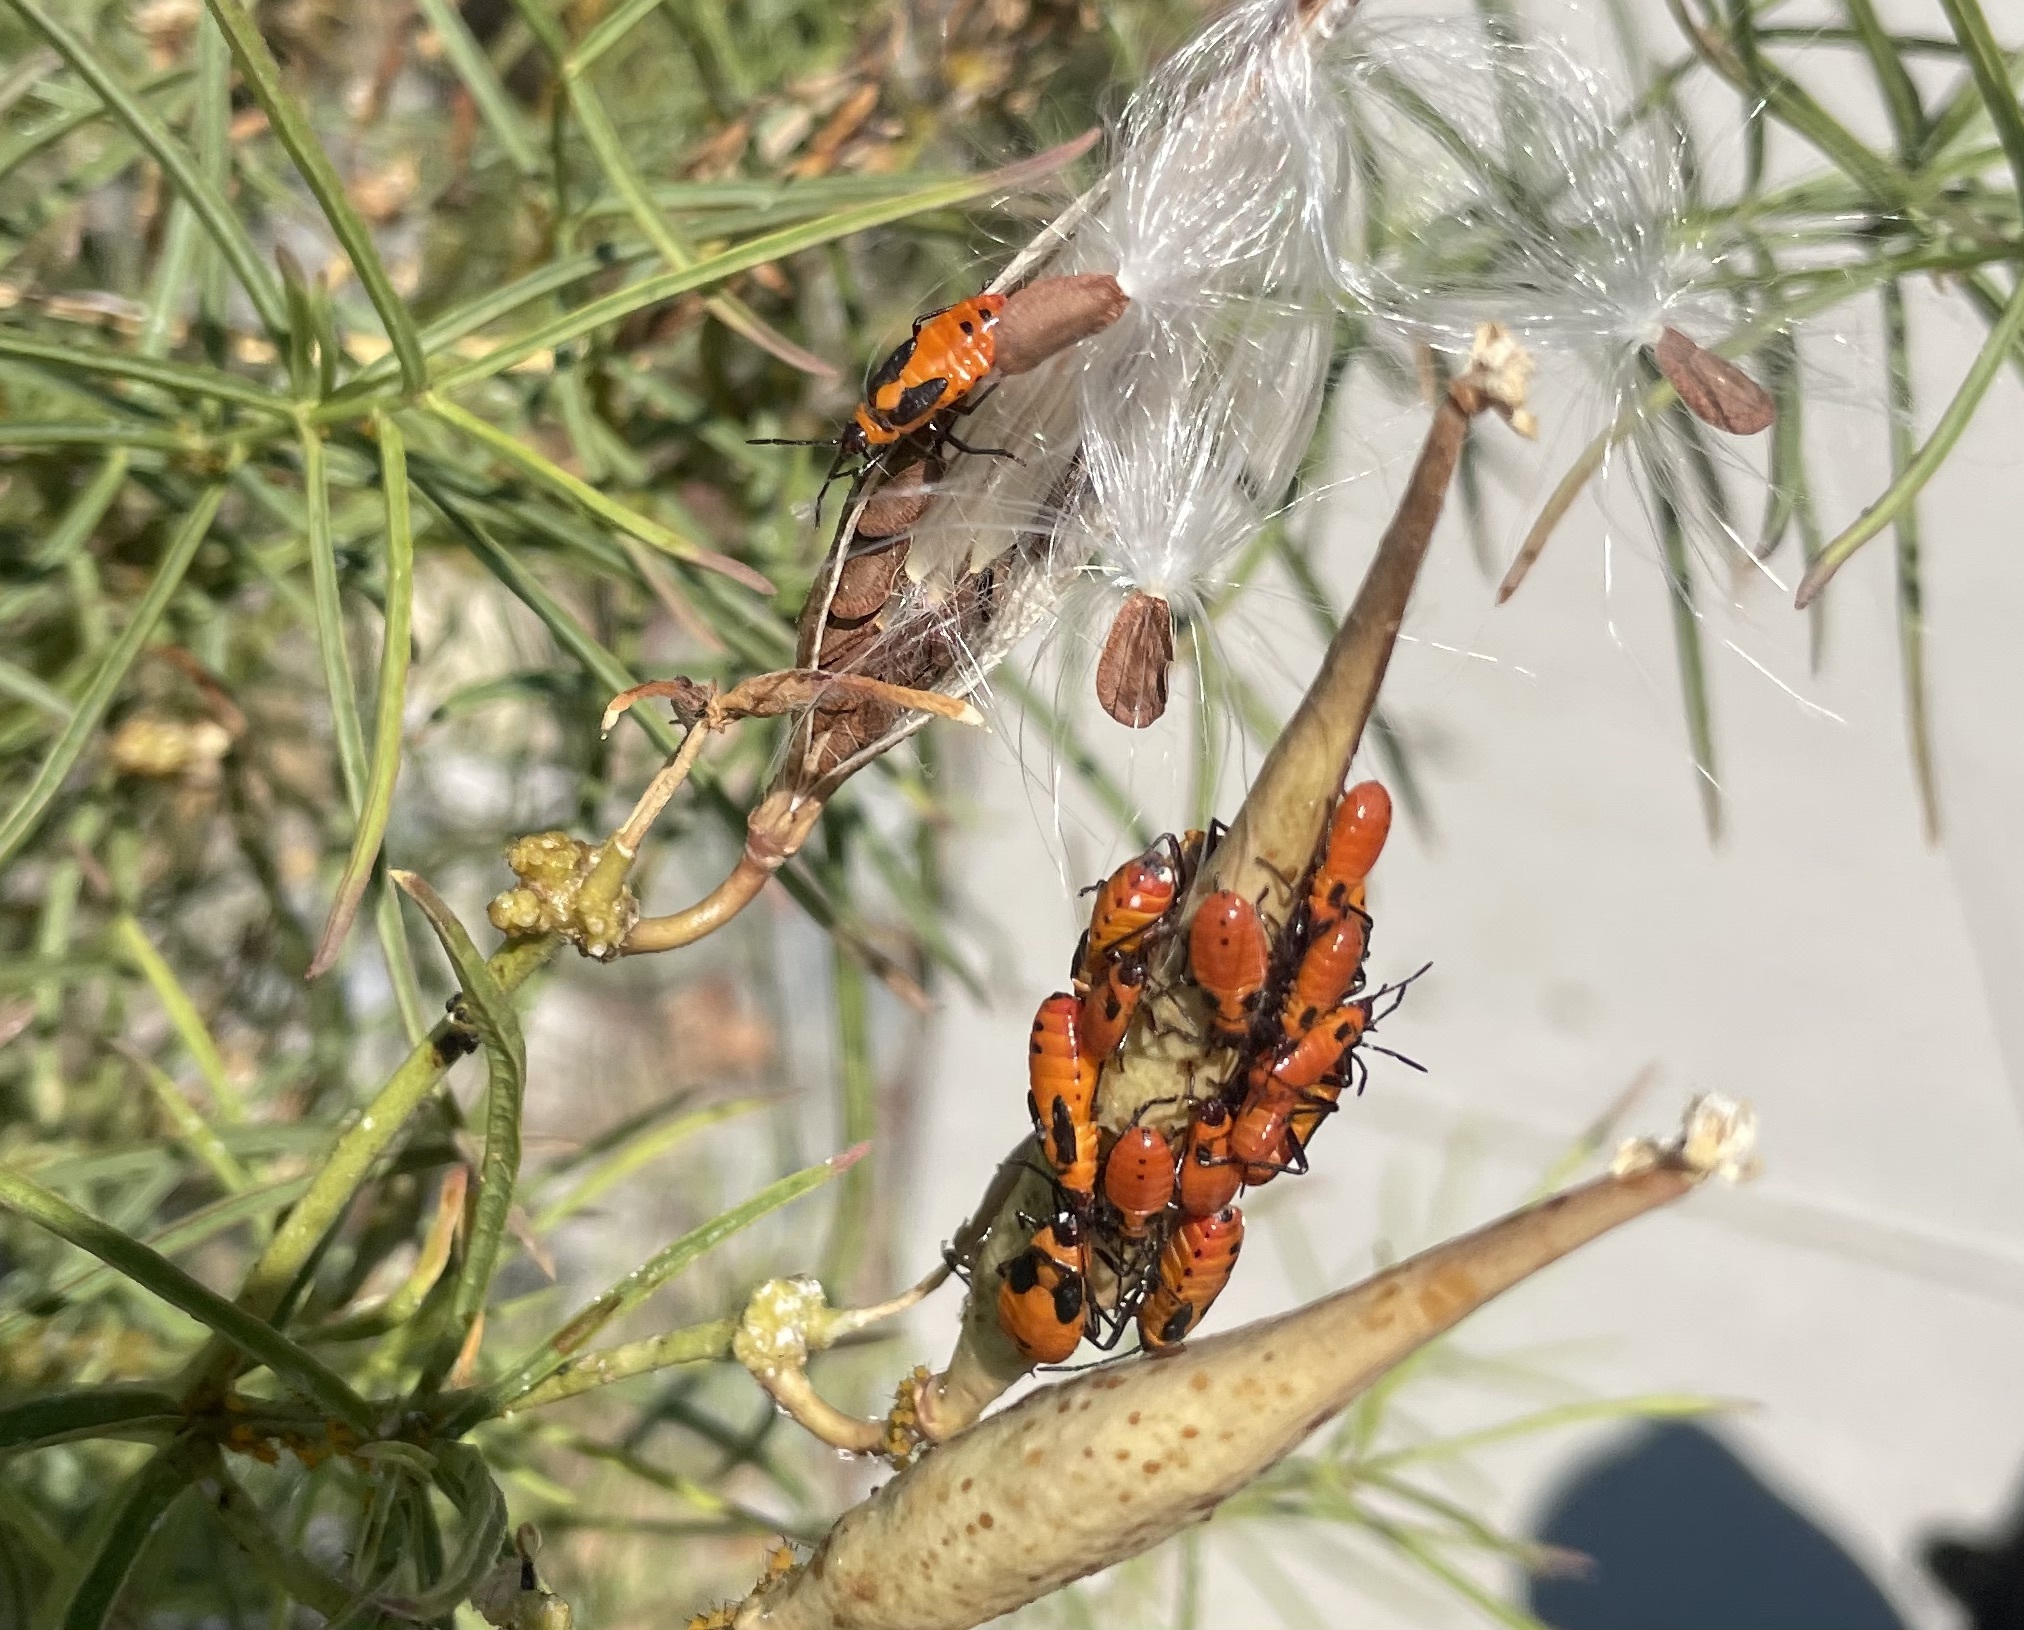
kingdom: Animalia
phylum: Arthropoda
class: Insecta
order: Hemiptera
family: Lygaeidae
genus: Oncopeltus
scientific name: Oncopeltus fasciatus
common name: Large milkweed bug
